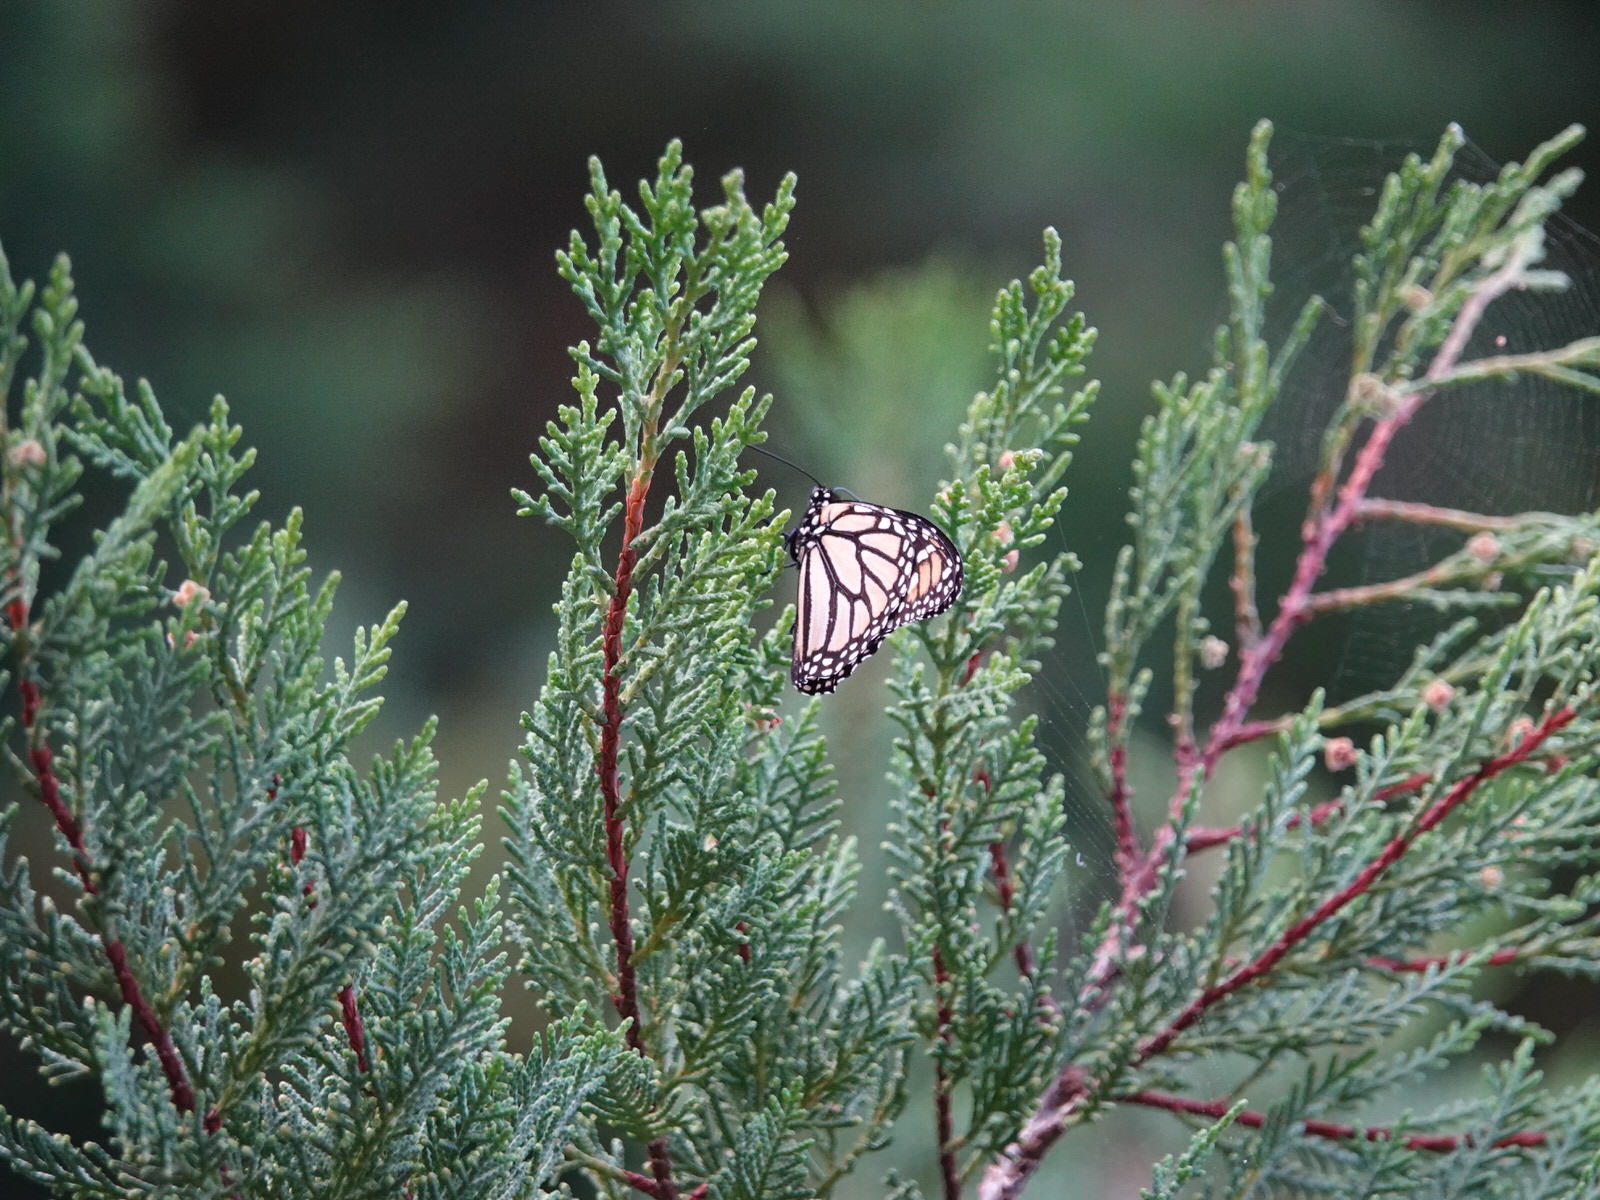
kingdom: Animalia
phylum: Arthropoda
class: Insecta
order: Lepidoptera
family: Nymphalidae
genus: Danaus
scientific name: Danaus plexippus
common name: Monarch
